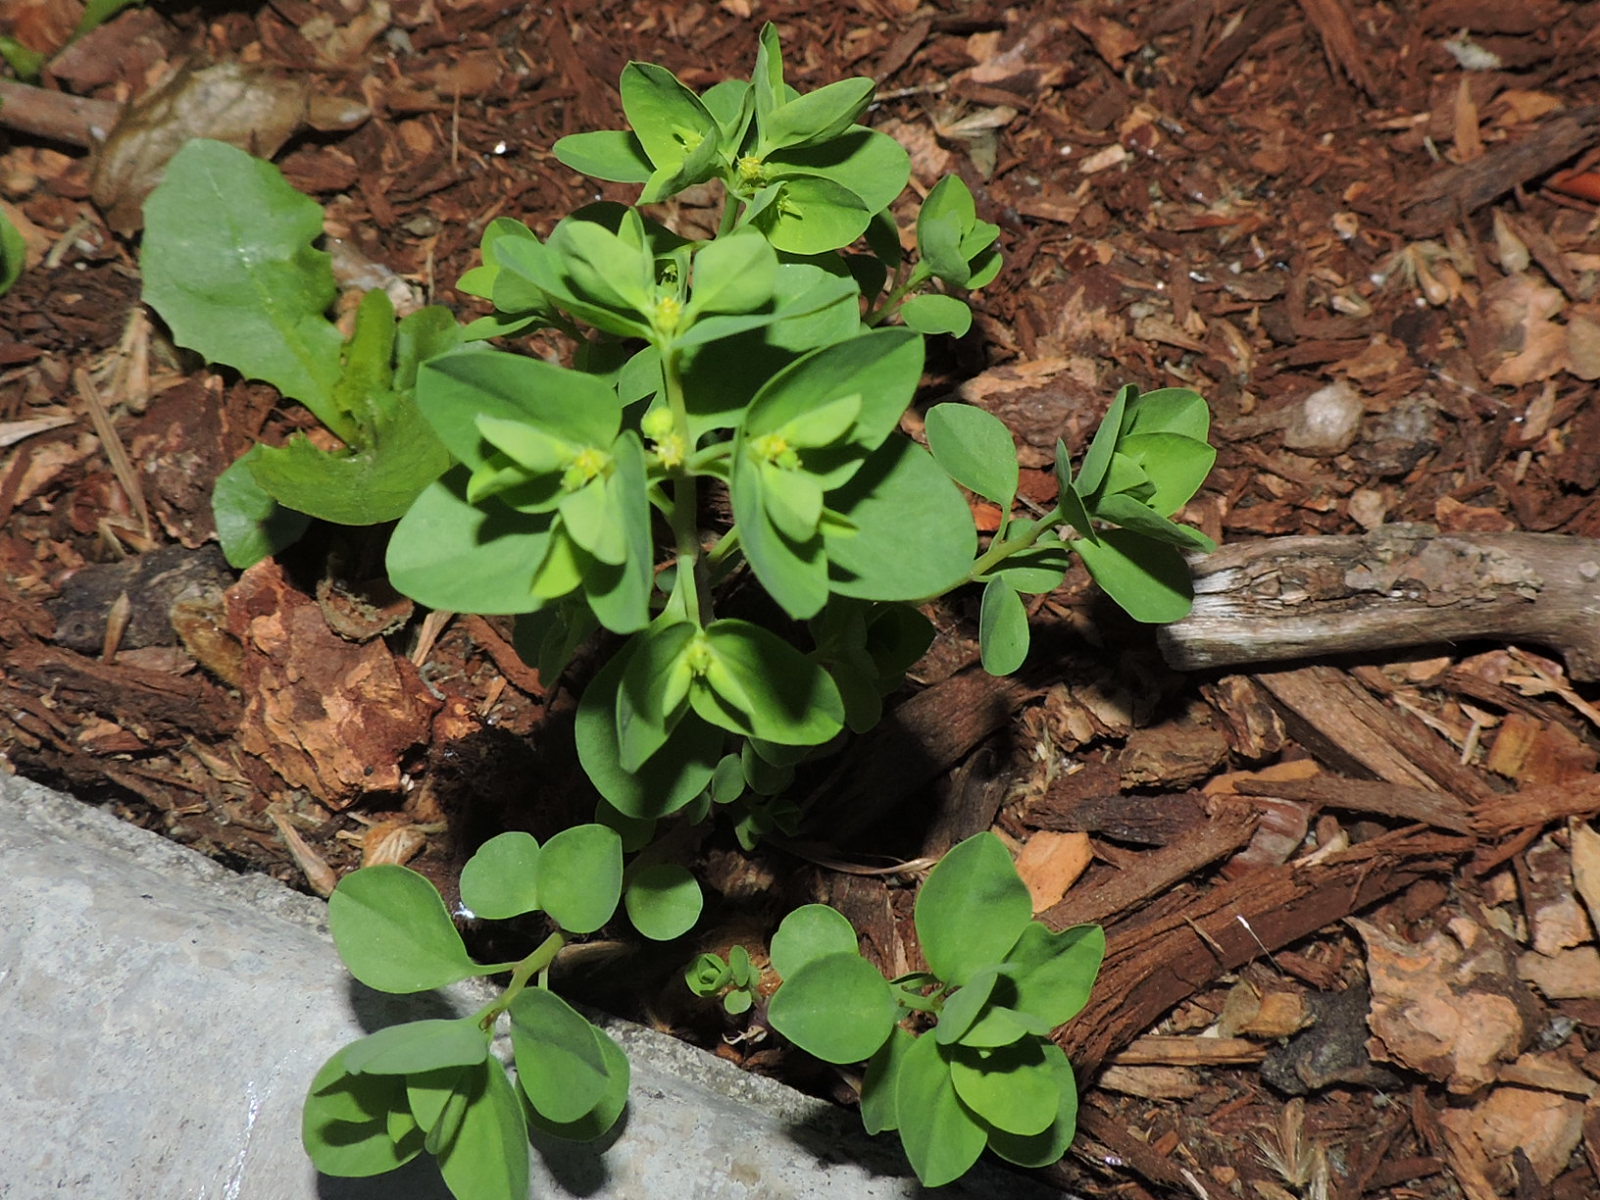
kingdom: Plantae
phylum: Tracheophyta
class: Magnoliopsida
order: Malpighiales
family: Euphorbiaceae
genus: Euphorbia
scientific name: Euphorbia peplus
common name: Petty spurge
